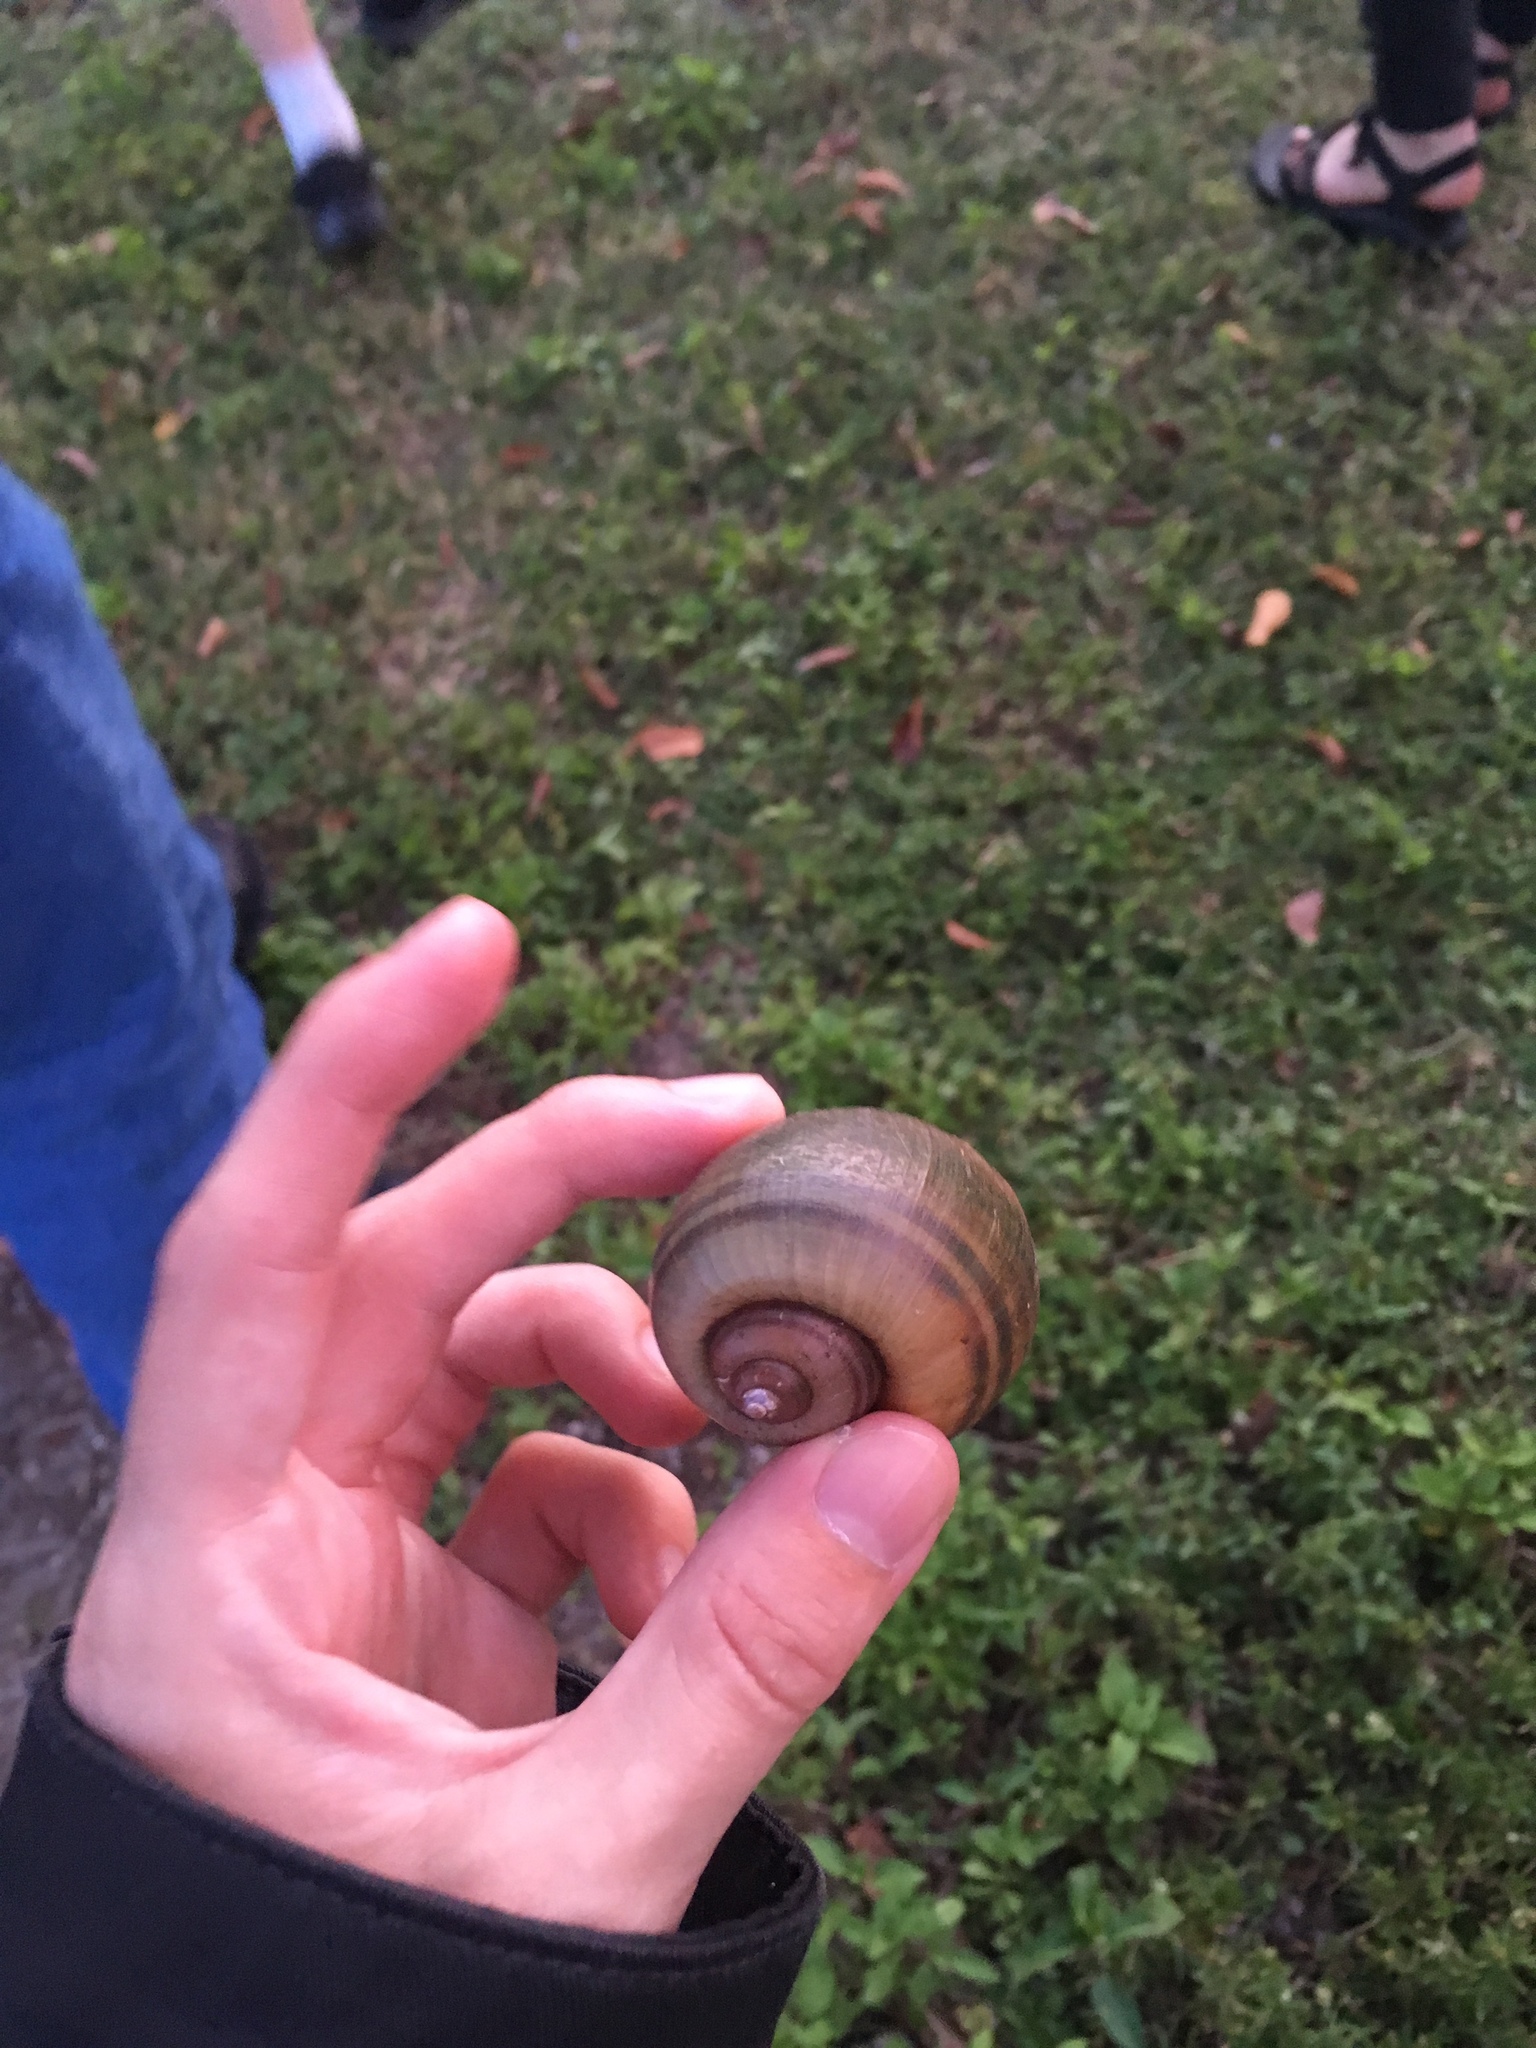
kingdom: Animalia
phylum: Mollusca
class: Gastropoda
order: Architaenioglossa
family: Ampullariidae
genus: Pomacea
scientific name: Pomacea maculata
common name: Giant applesnail
